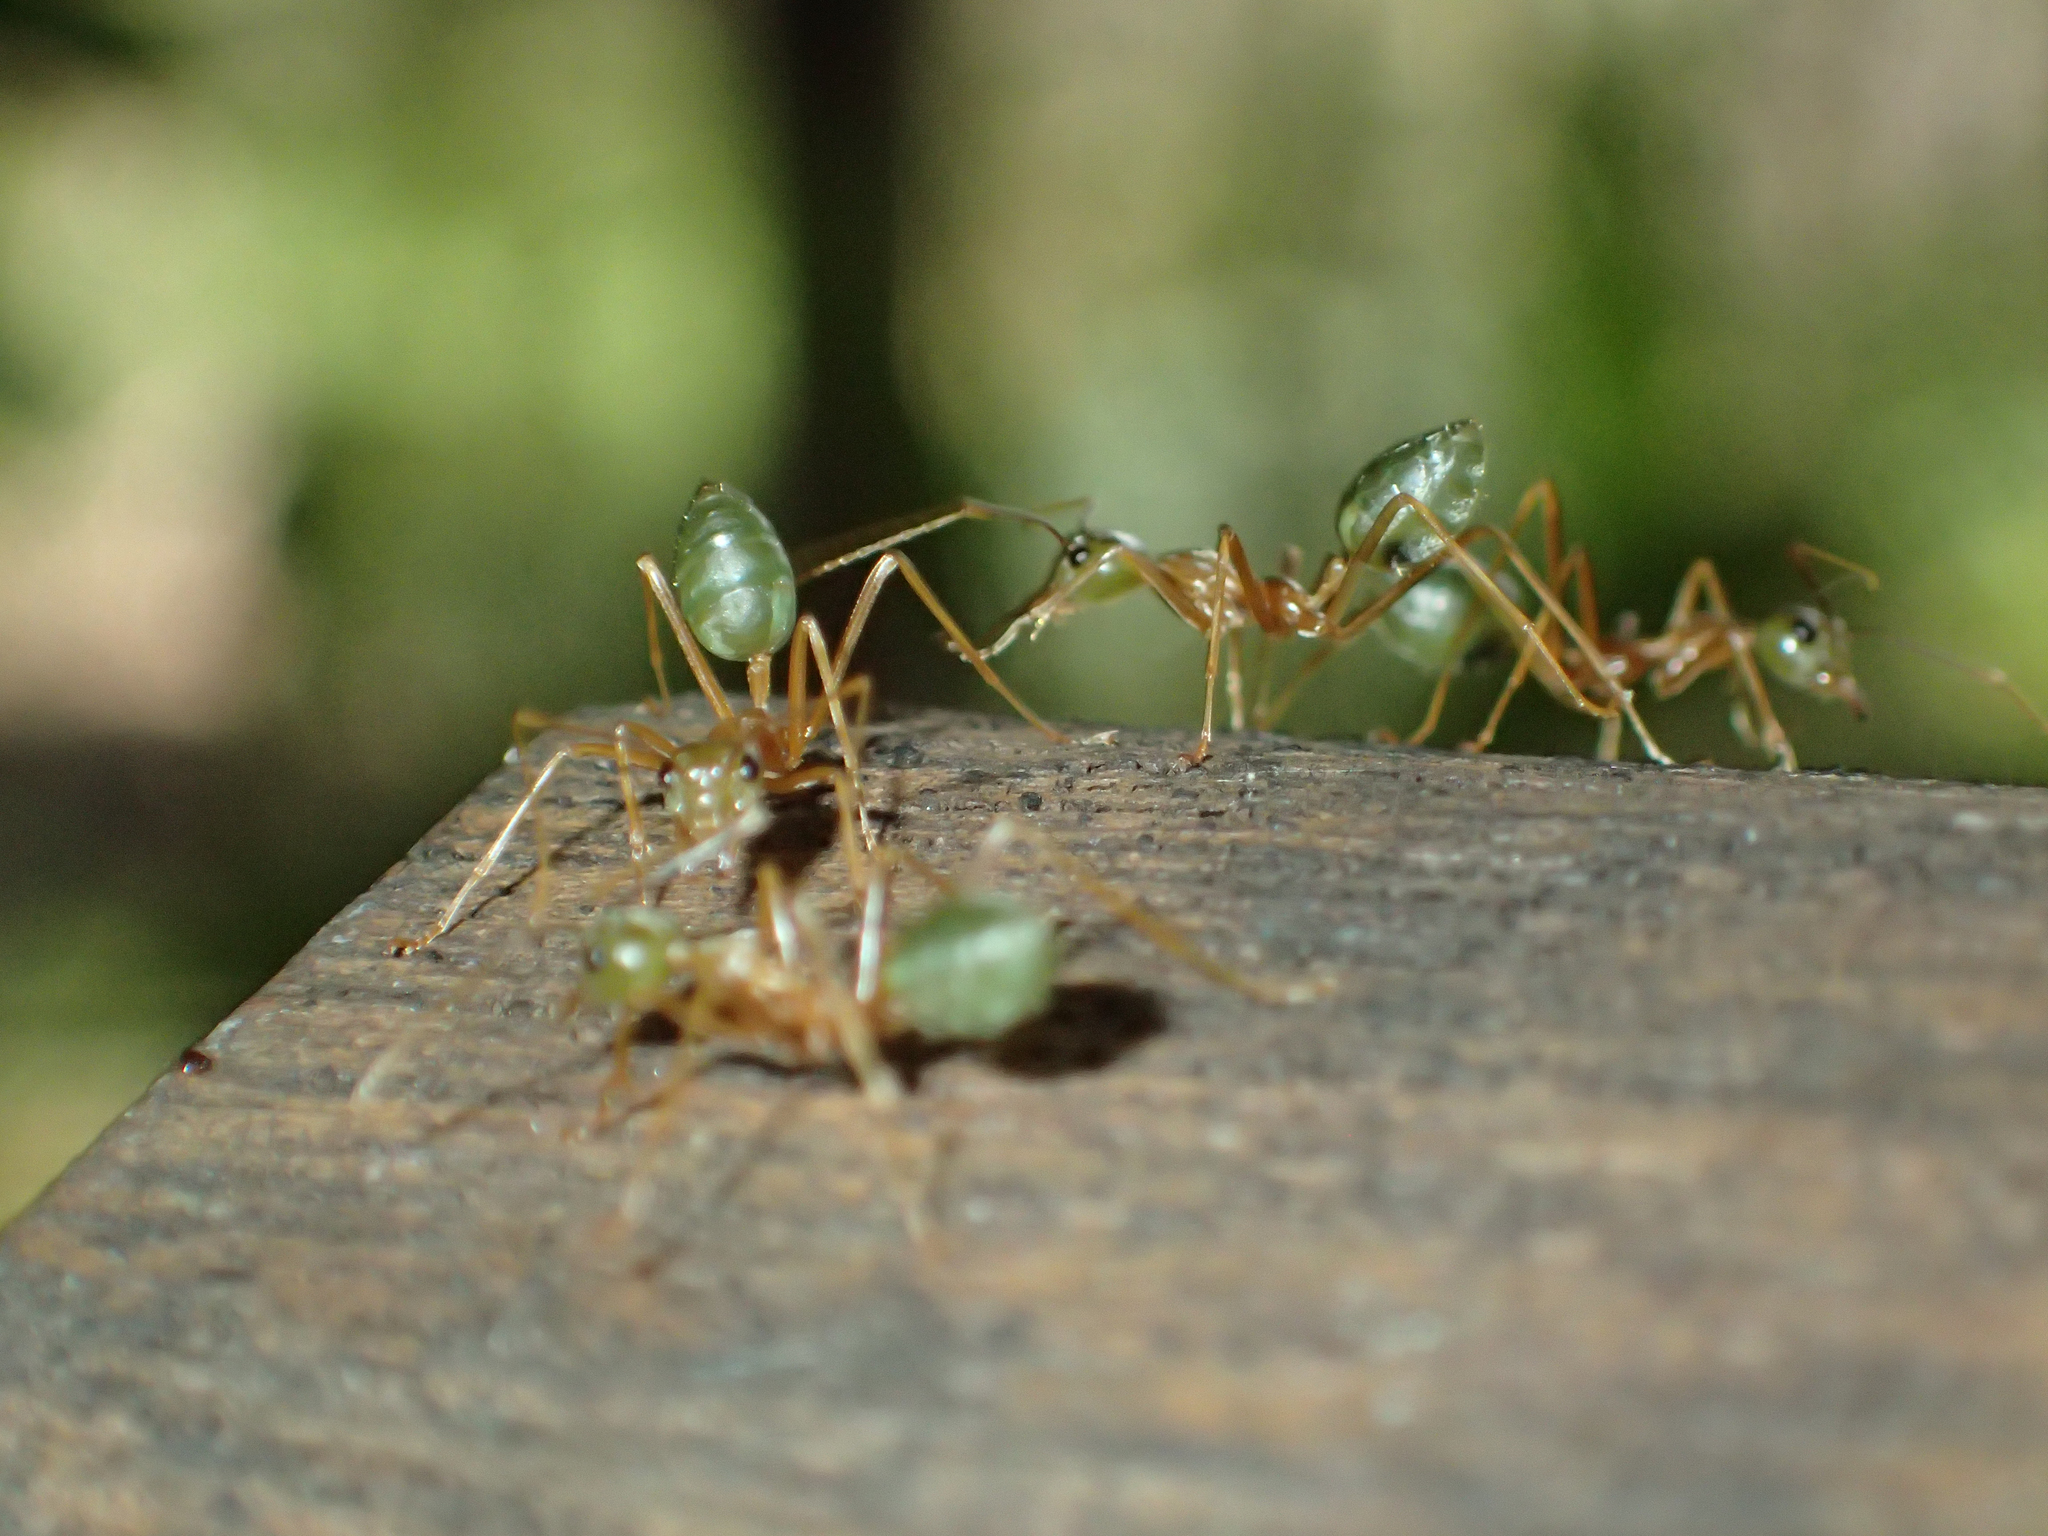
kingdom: Animalia
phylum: Arthropoda
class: Insecta
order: Hymenoptera
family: Formicidae
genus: Oecophylla
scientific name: Oecophylla smaragdina
